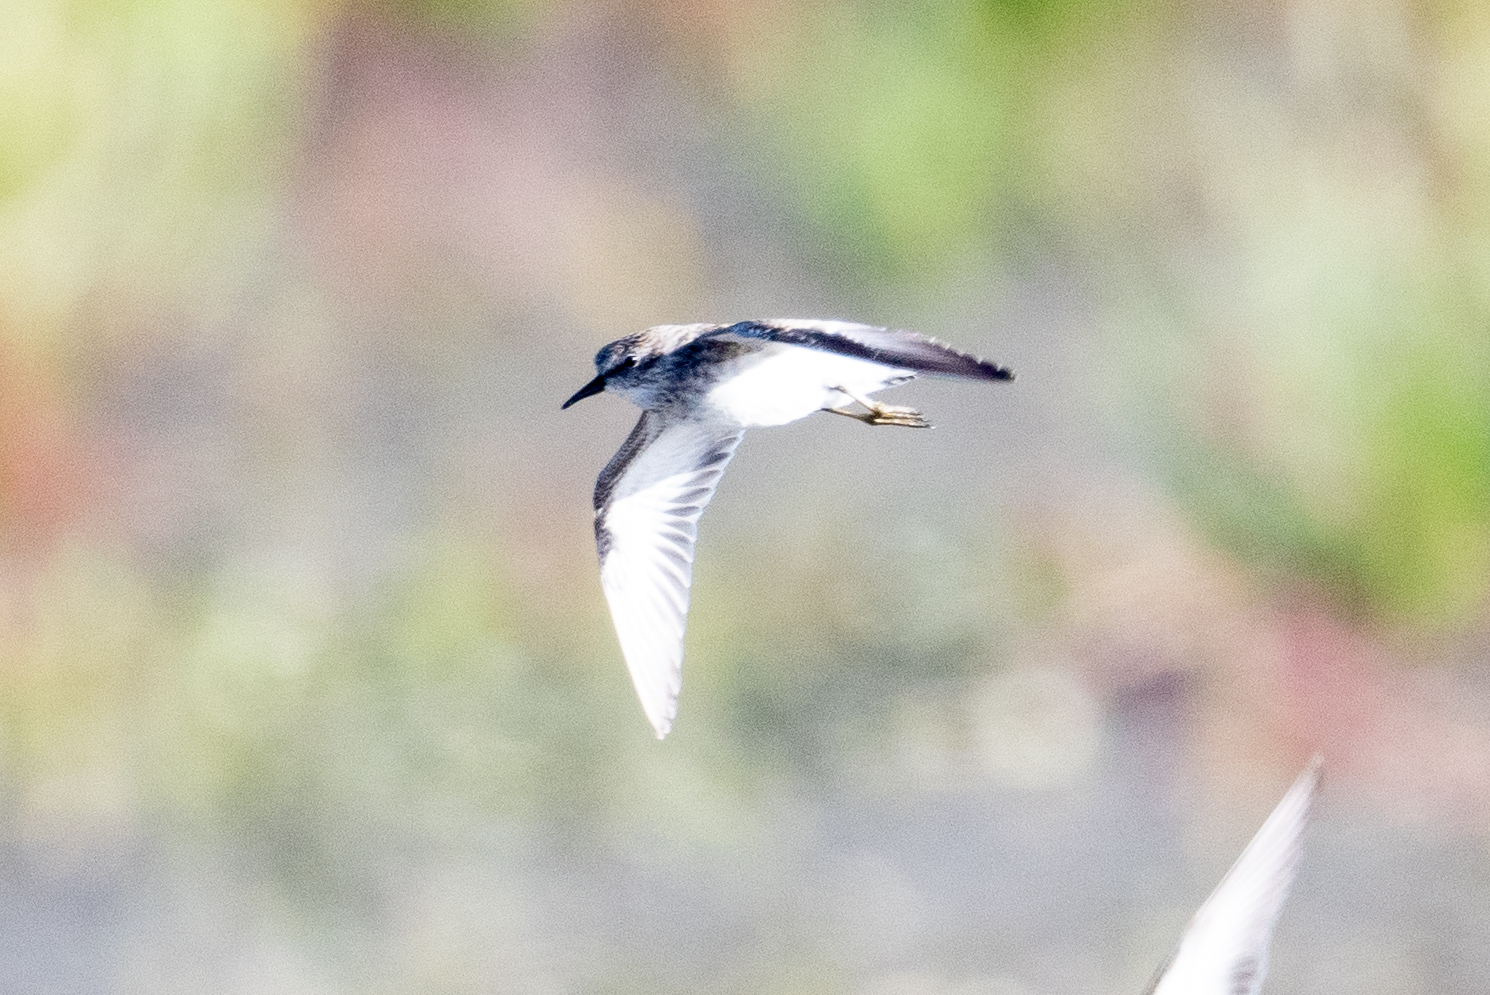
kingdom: Animalia
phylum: Chordata
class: Aves
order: Charadriiformes
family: Scolopacidae
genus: Calidris
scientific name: Calidris minutilla
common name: Least sandpiper
